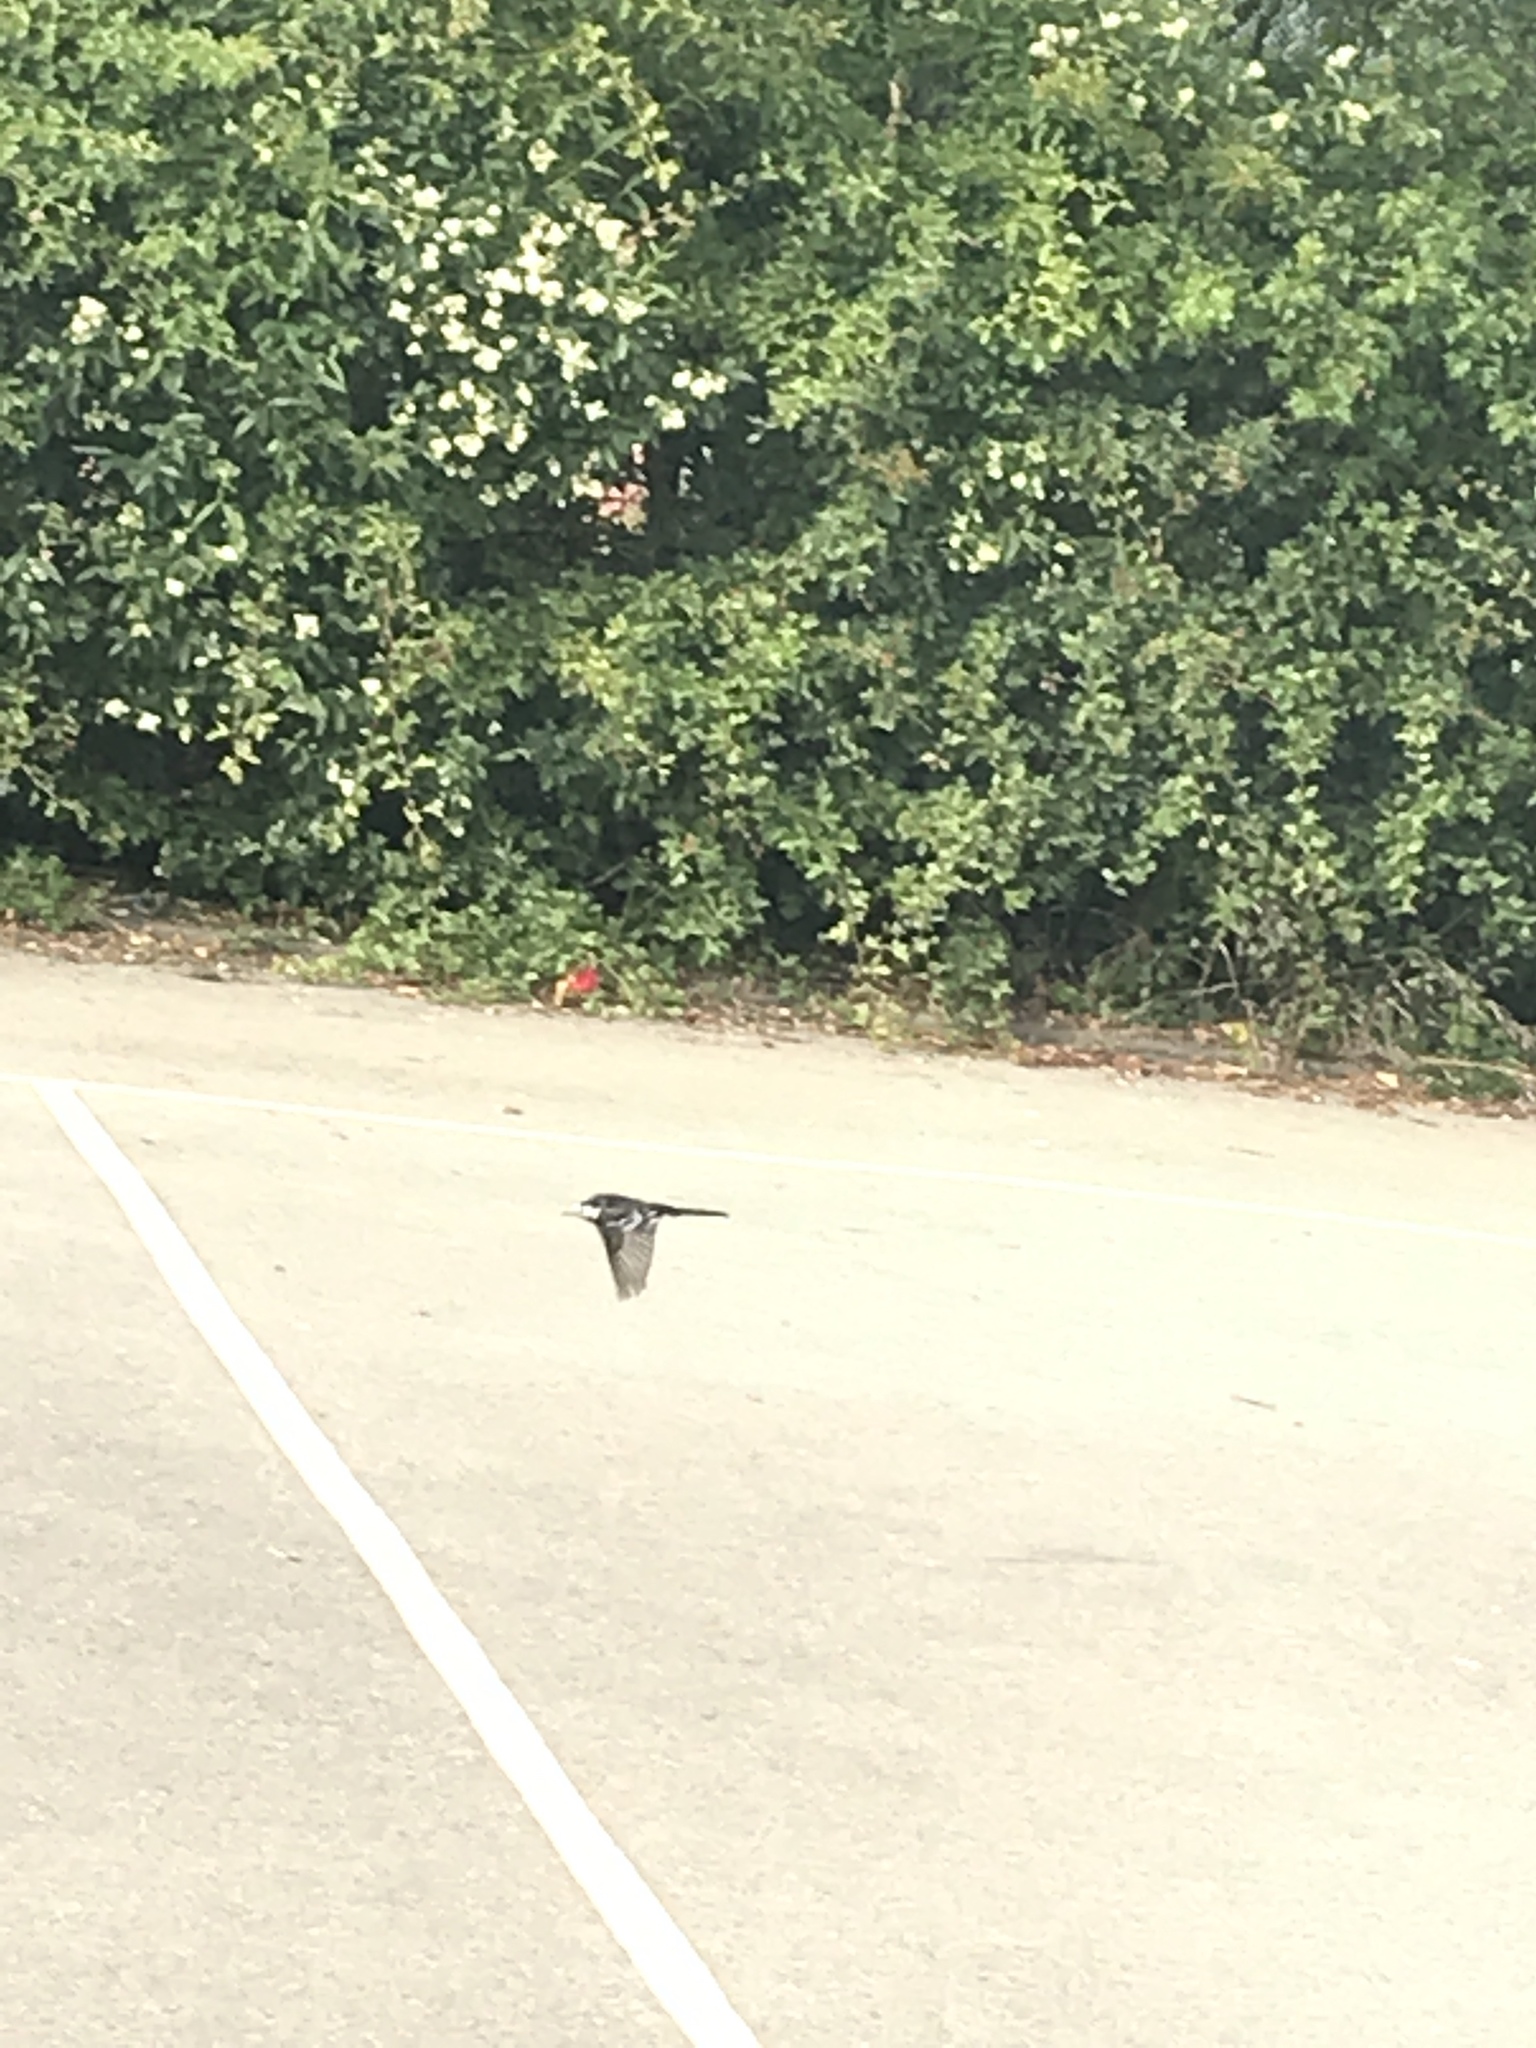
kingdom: Animalia
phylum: Chordata
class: Aves
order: Passeriformes
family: Motacillidae
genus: Motacilla
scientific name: Motacilla alba
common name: White wagtail
